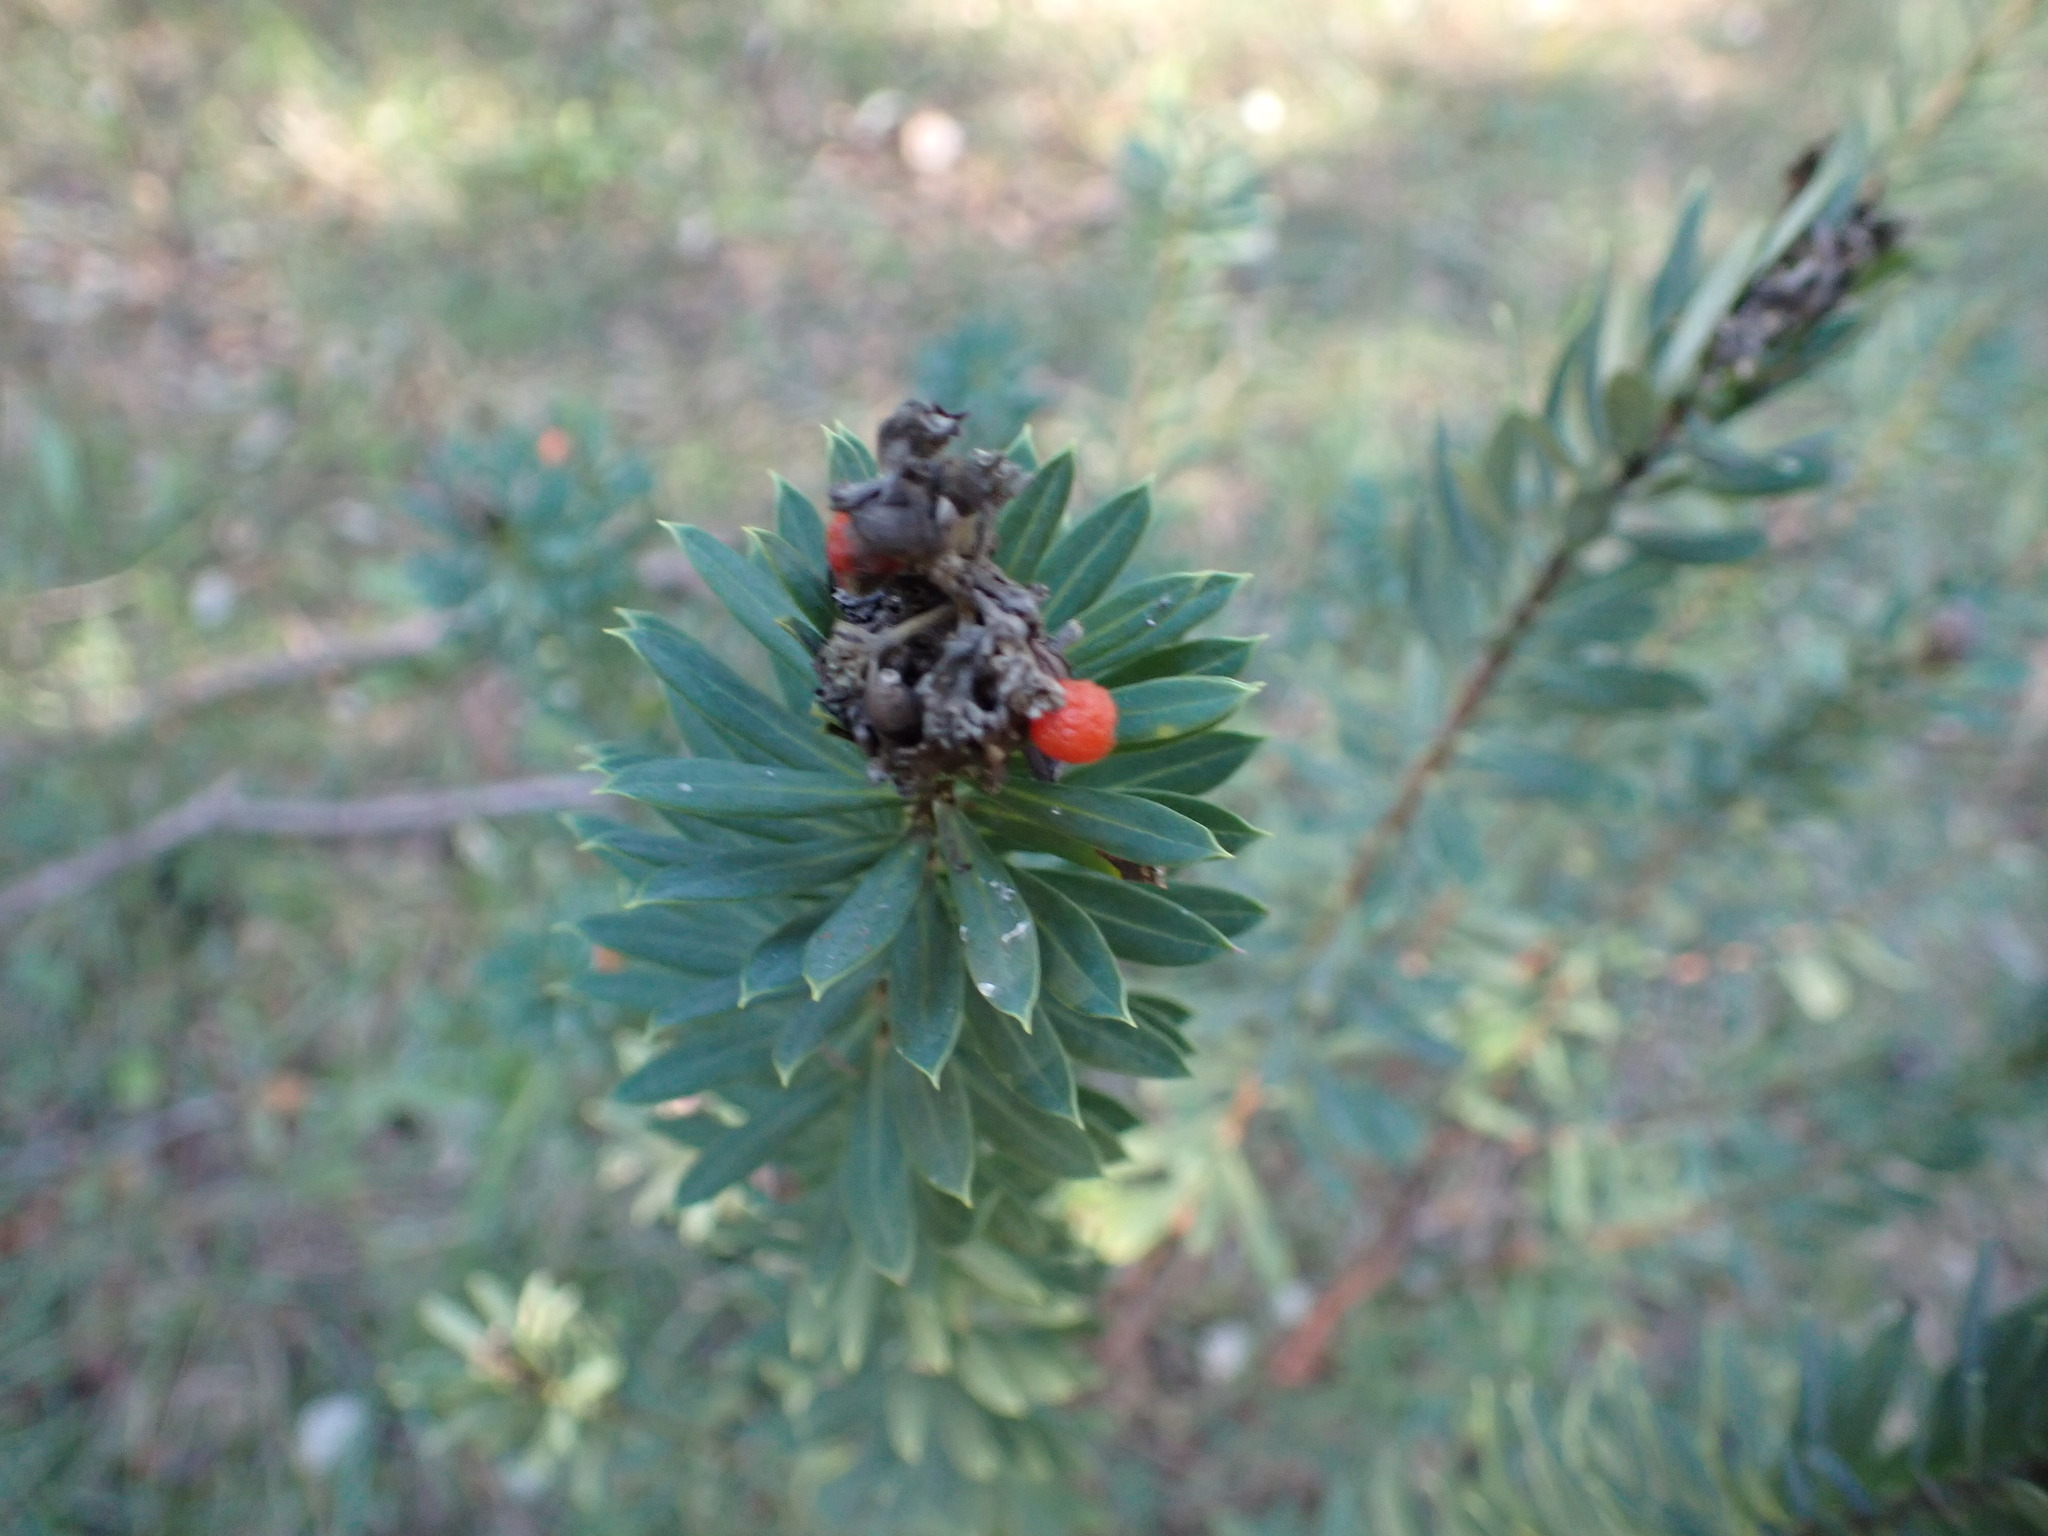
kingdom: Plantae
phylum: Tracheophyta
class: Magnoliopsida
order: Malvales
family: Thymelaeaceae
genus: Daphne
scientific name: Daphne gnidium
